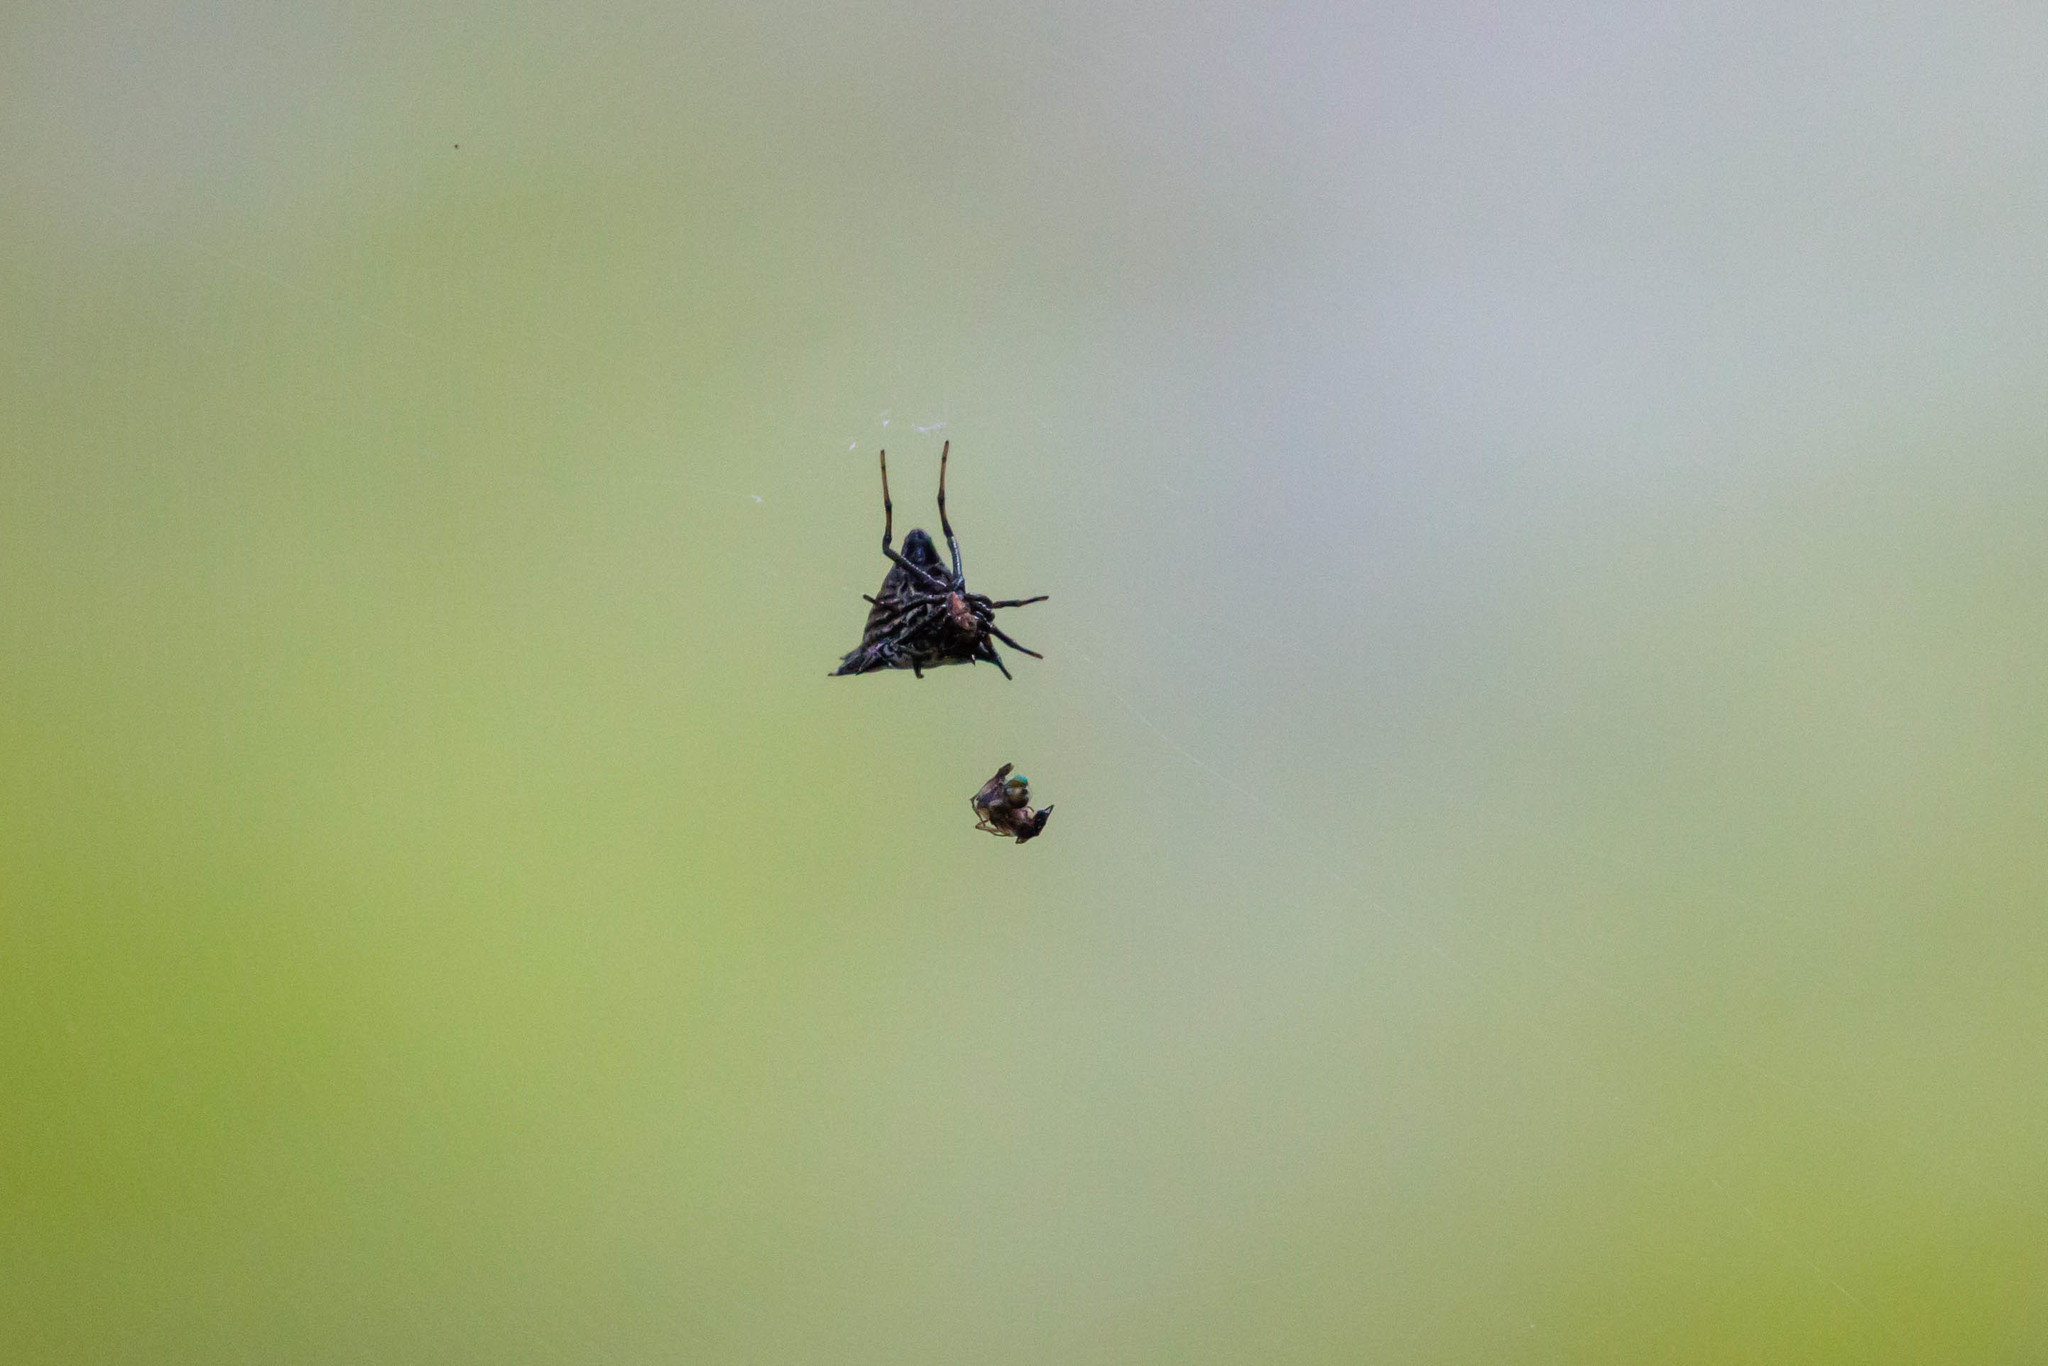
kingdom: Animalia
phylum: Arthropoda
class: Arachnida
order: Araneae
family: Araneidae
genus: Micrathena
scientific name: Micrathena gracilis
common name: Orb weavers
